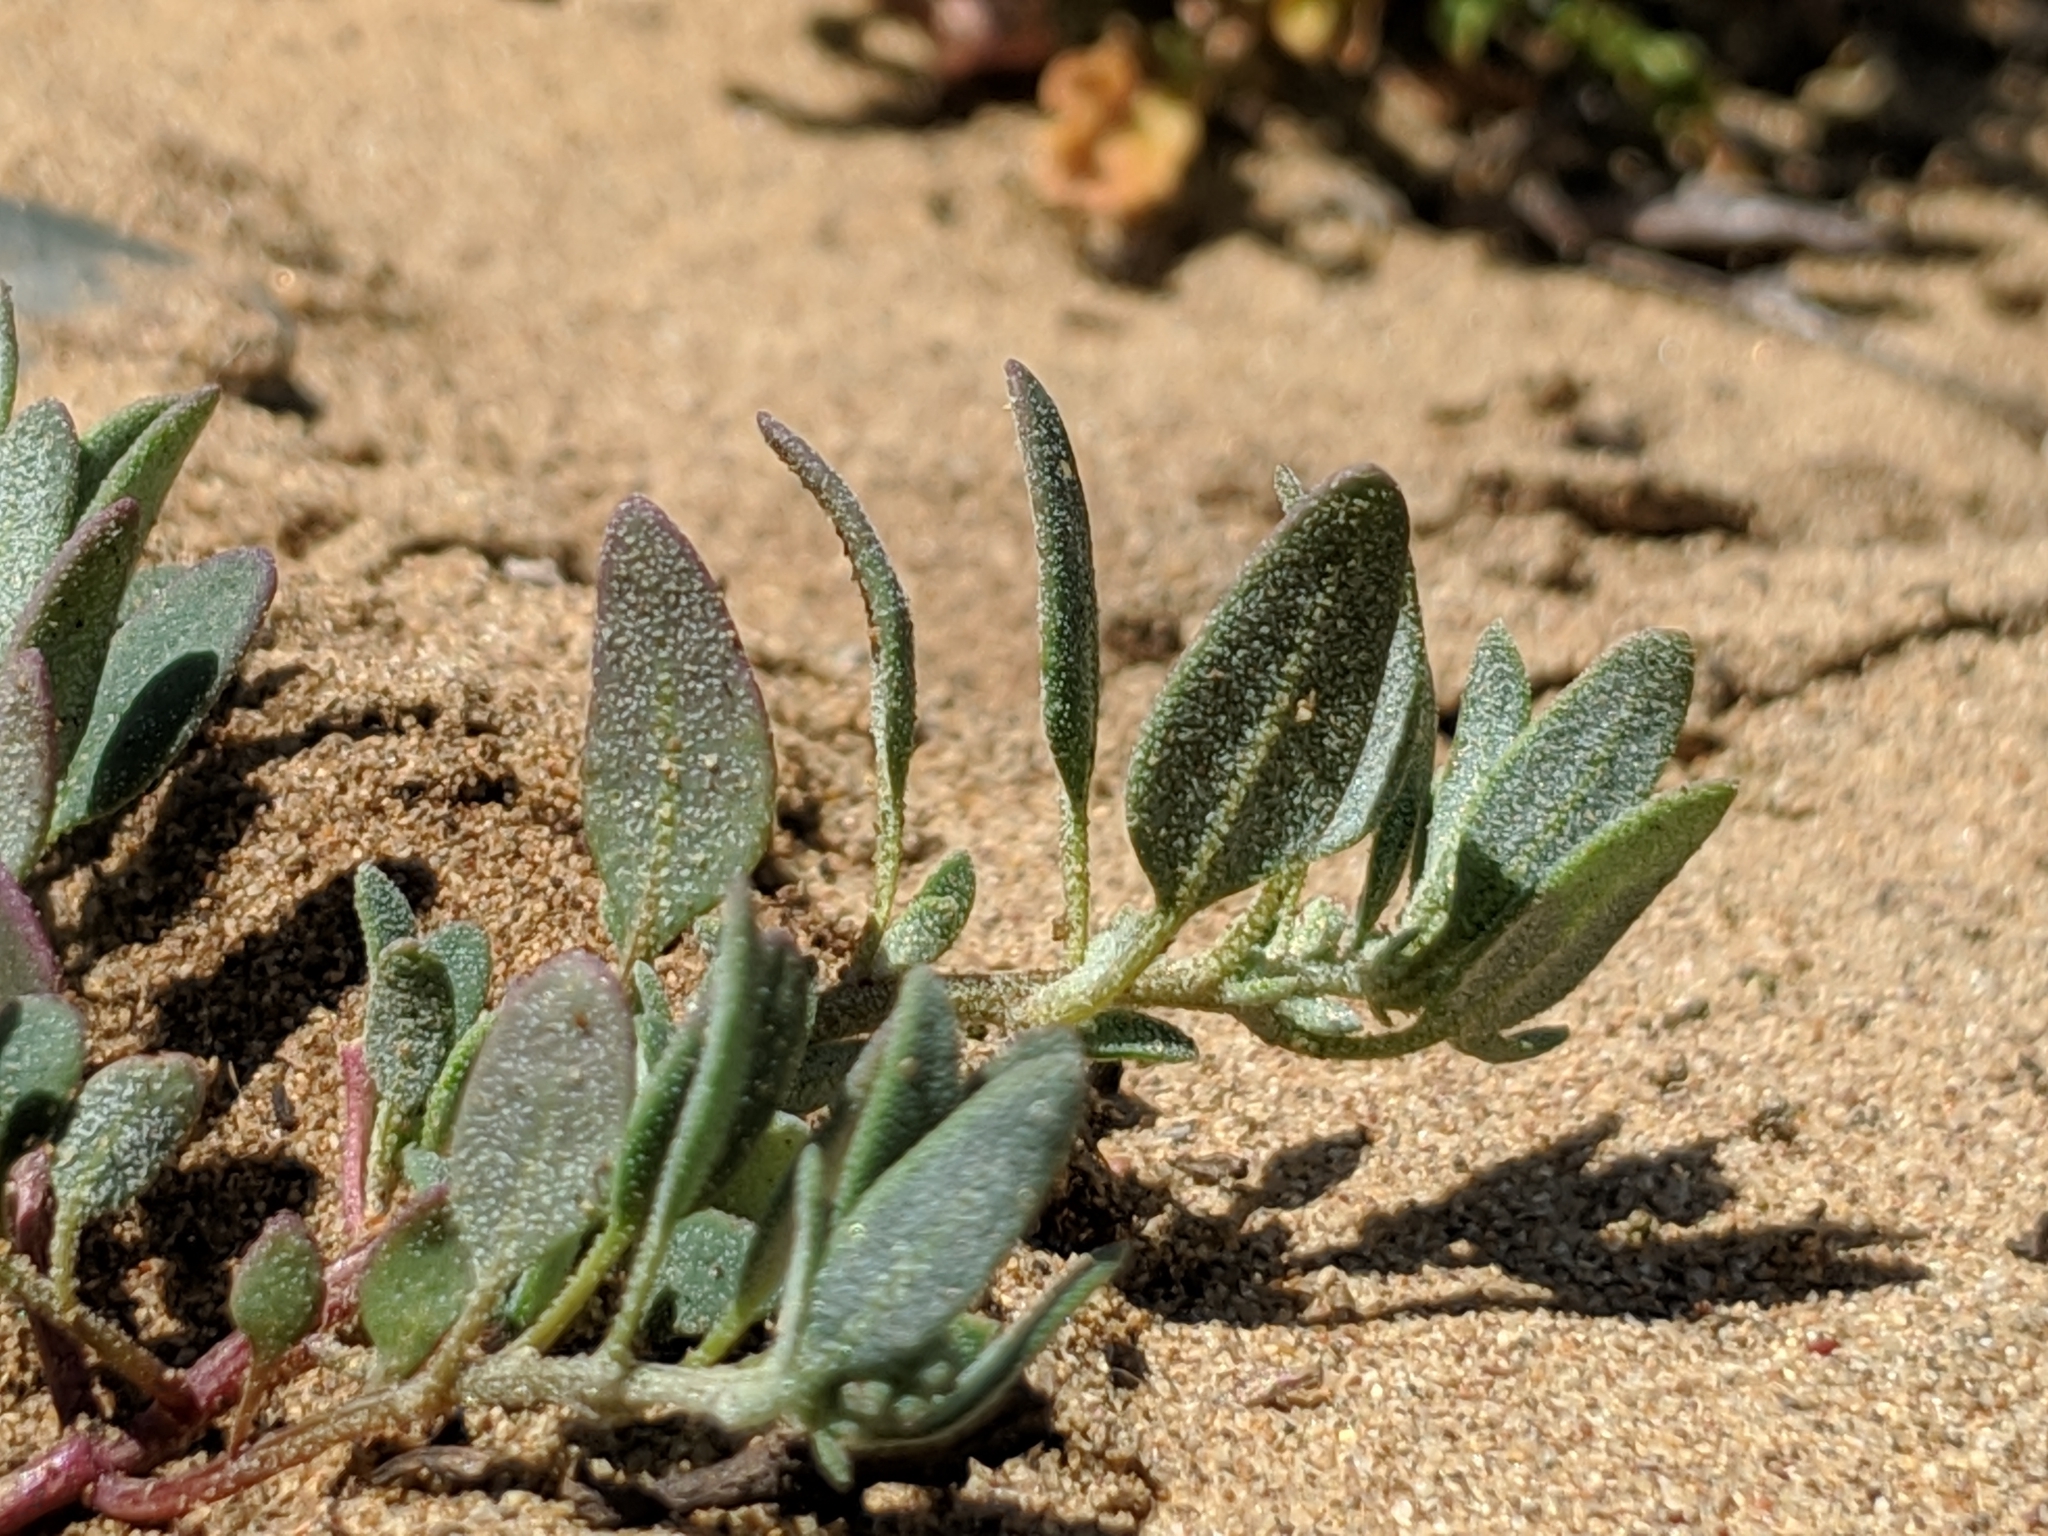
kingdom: Plantae
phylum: Tracheophyta
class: Magnoliopsida
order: Caryophyllales
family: Amaranthaceae
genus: Chenopodium
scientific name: Chenopodium littoreum
